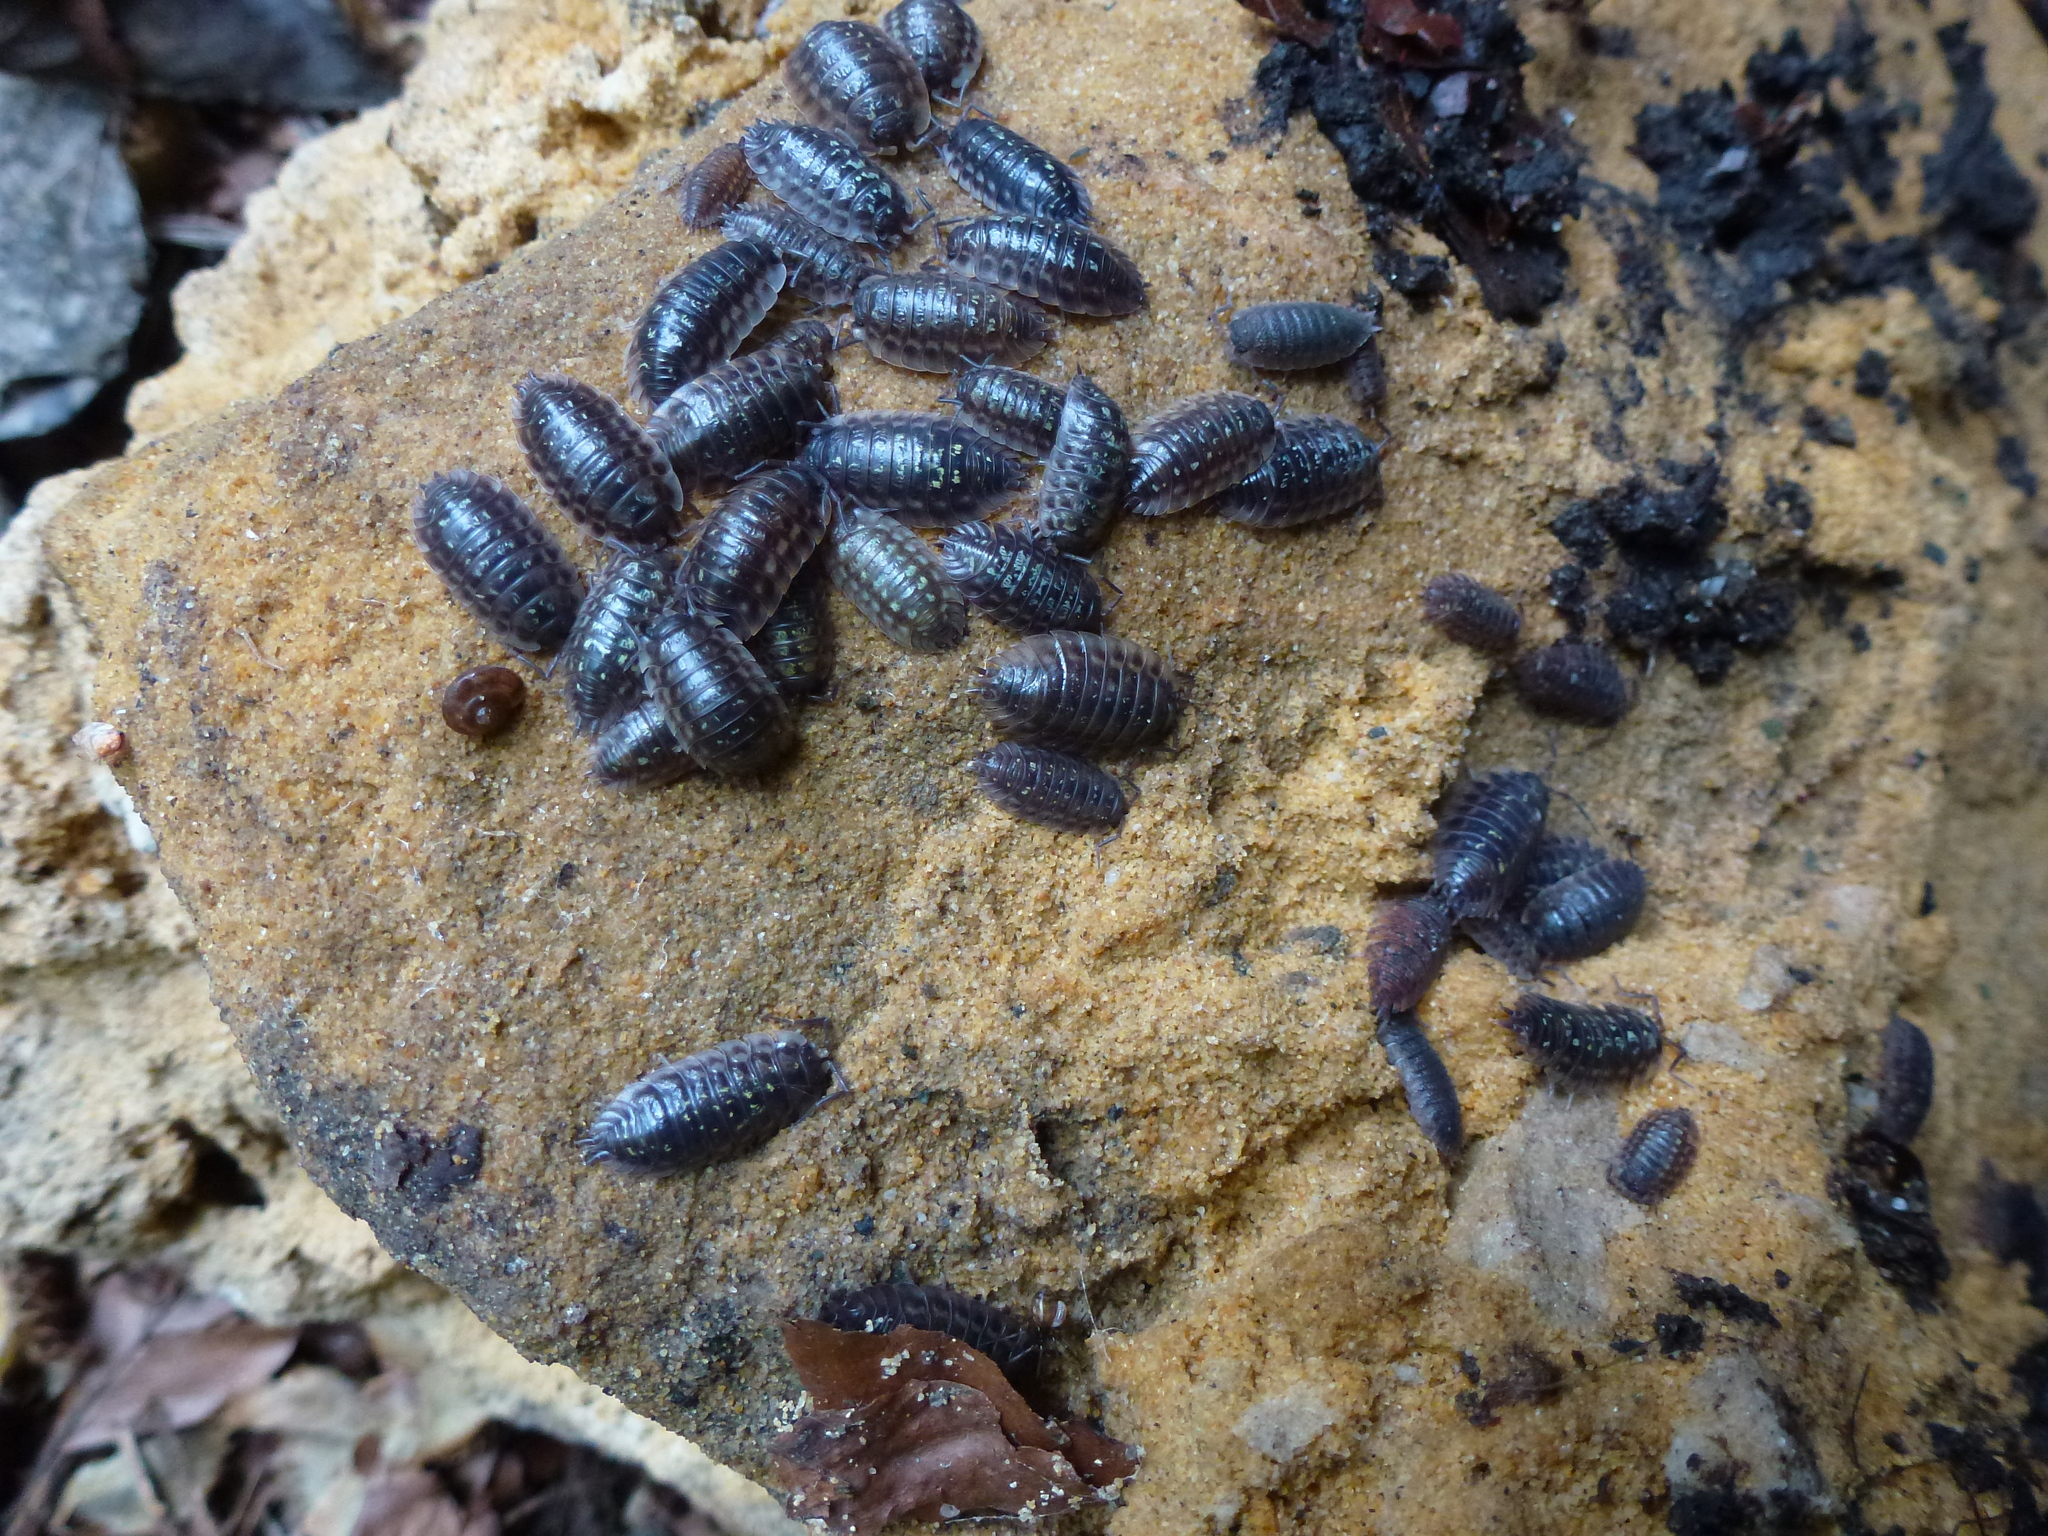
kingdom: Animalia
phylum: Arthropoda
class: Malacostraca
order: Isopoda
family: Oniscidae
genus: Oniscus
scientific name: Oniscus asellus
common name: Common shiny woodlouse
